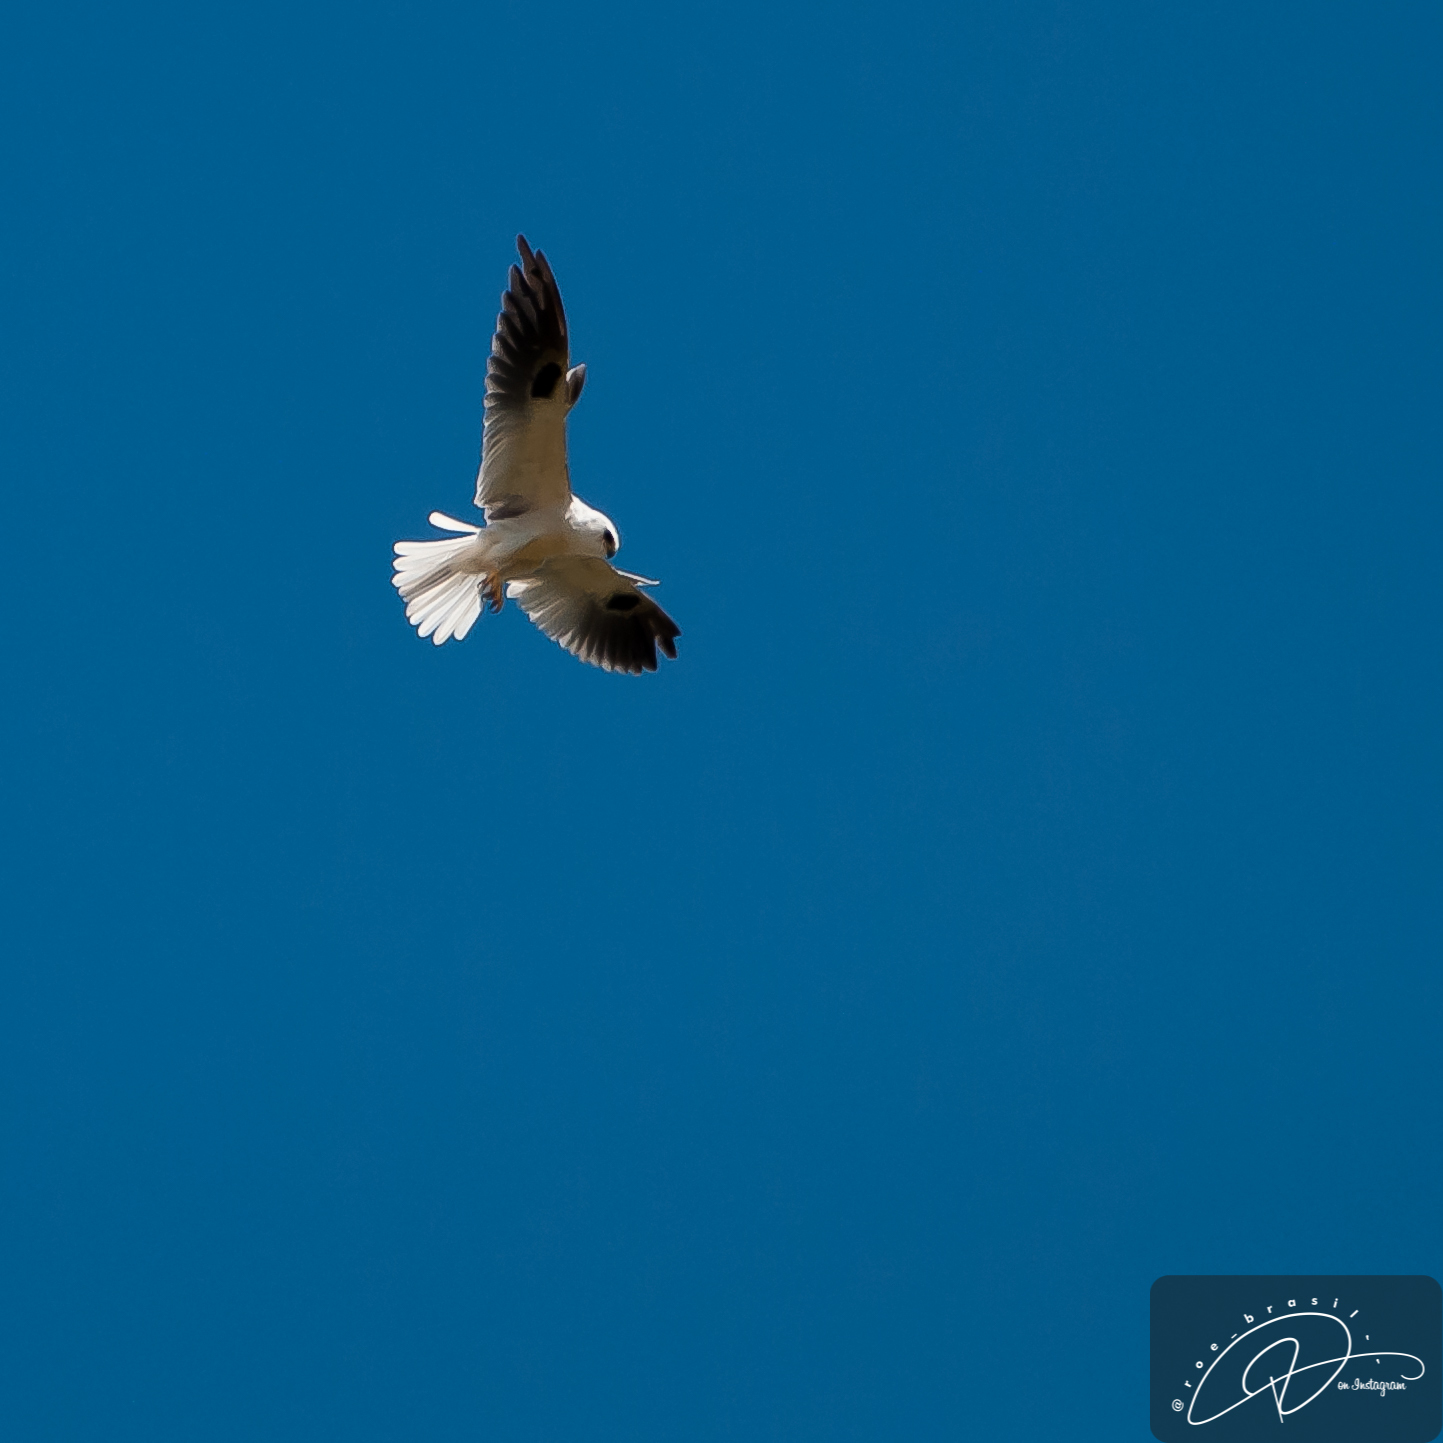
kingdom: Animalia
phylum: Chordata
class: Aves
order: Accipitriformes
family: Accipitridae
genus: Elanus
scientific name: Elanus leucurus
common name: White-tailed kite
